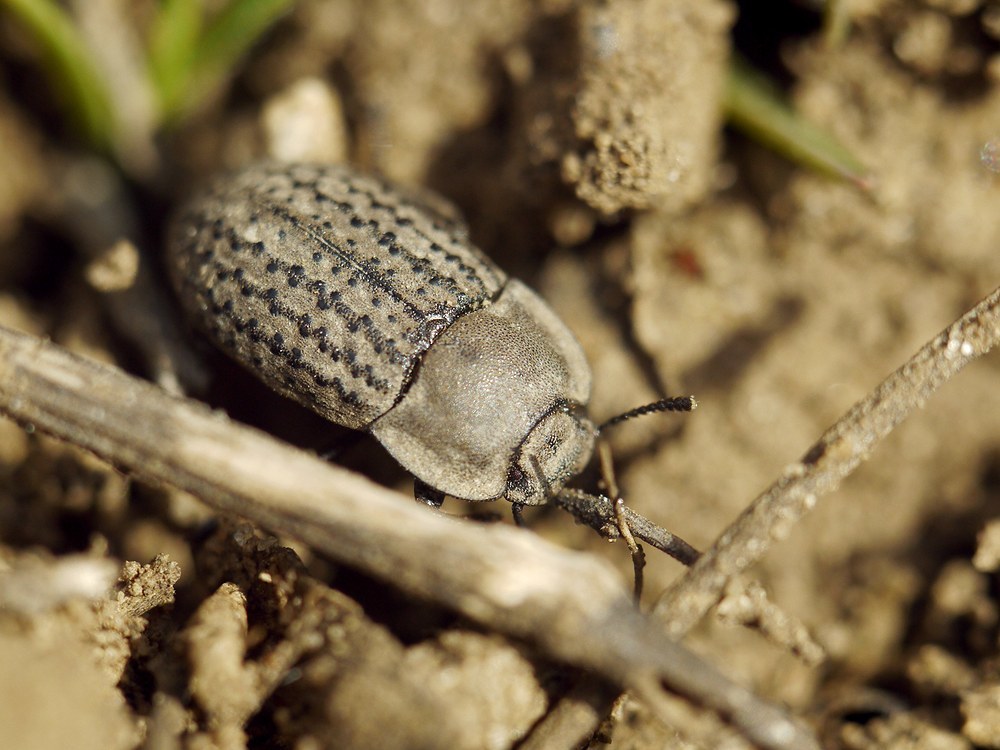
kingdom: Animalia
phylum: Arthropoda
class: Insecta
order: Coleoptera
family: Tenebrionidae
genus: Opatrum
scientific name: Opatrum sabulosum
